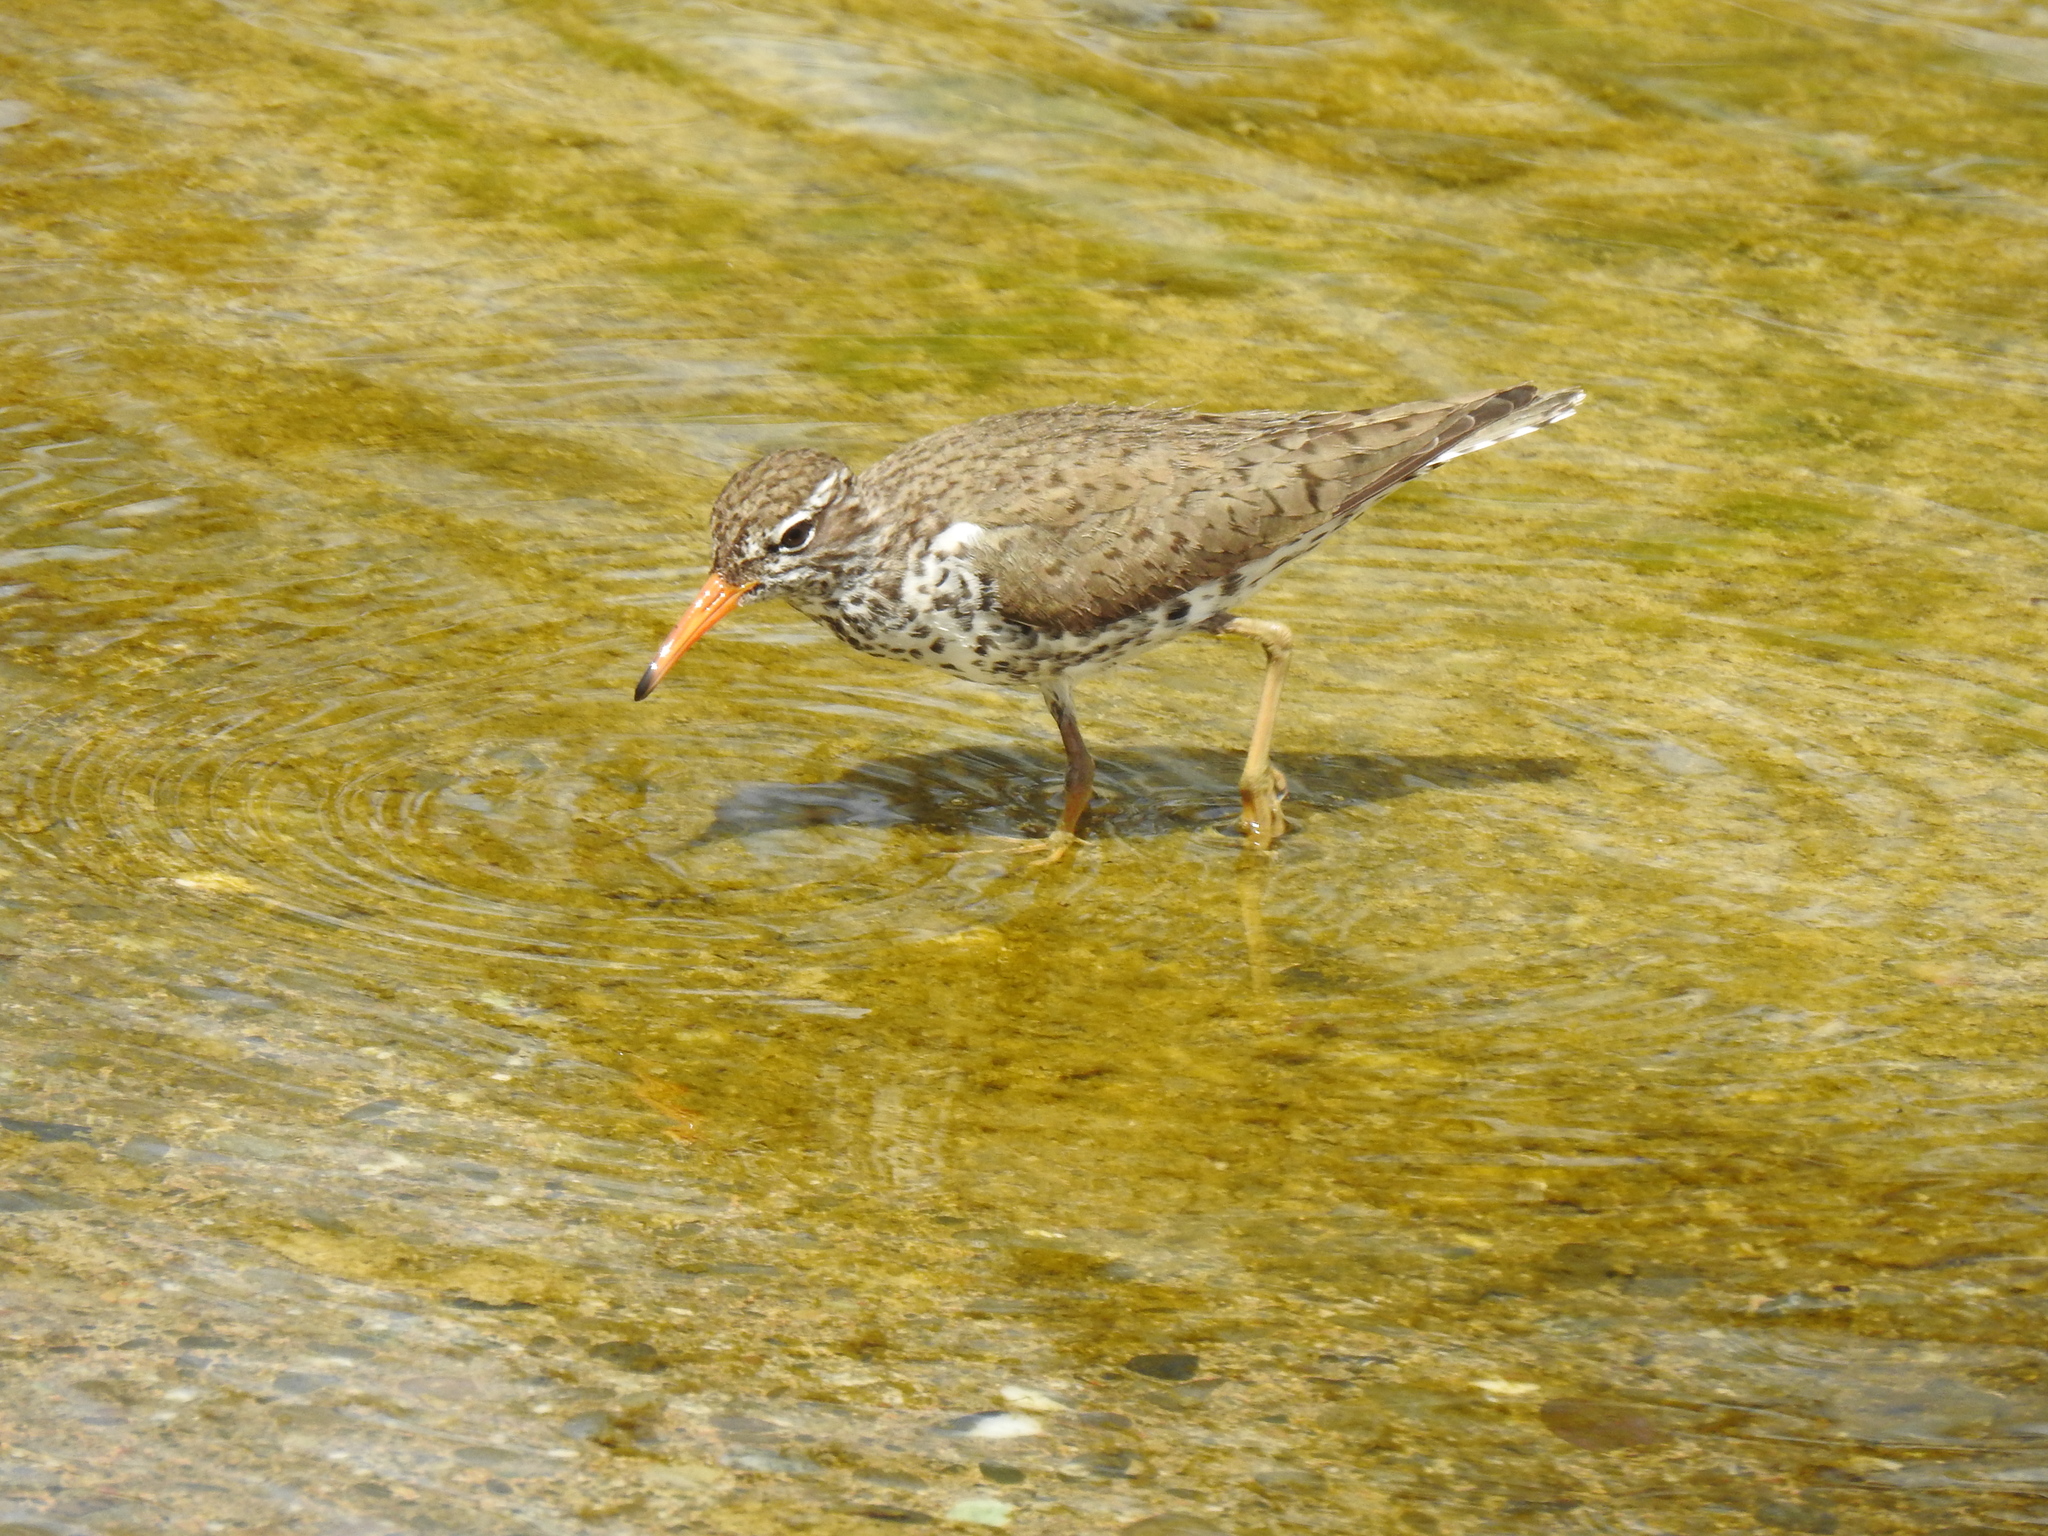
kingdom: Animalia
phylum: Chordata
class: Aves
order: Charadriiformes
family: Scolopacidae
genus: Actitis
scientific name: Actitis macularius
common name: Spotted sandpiper
